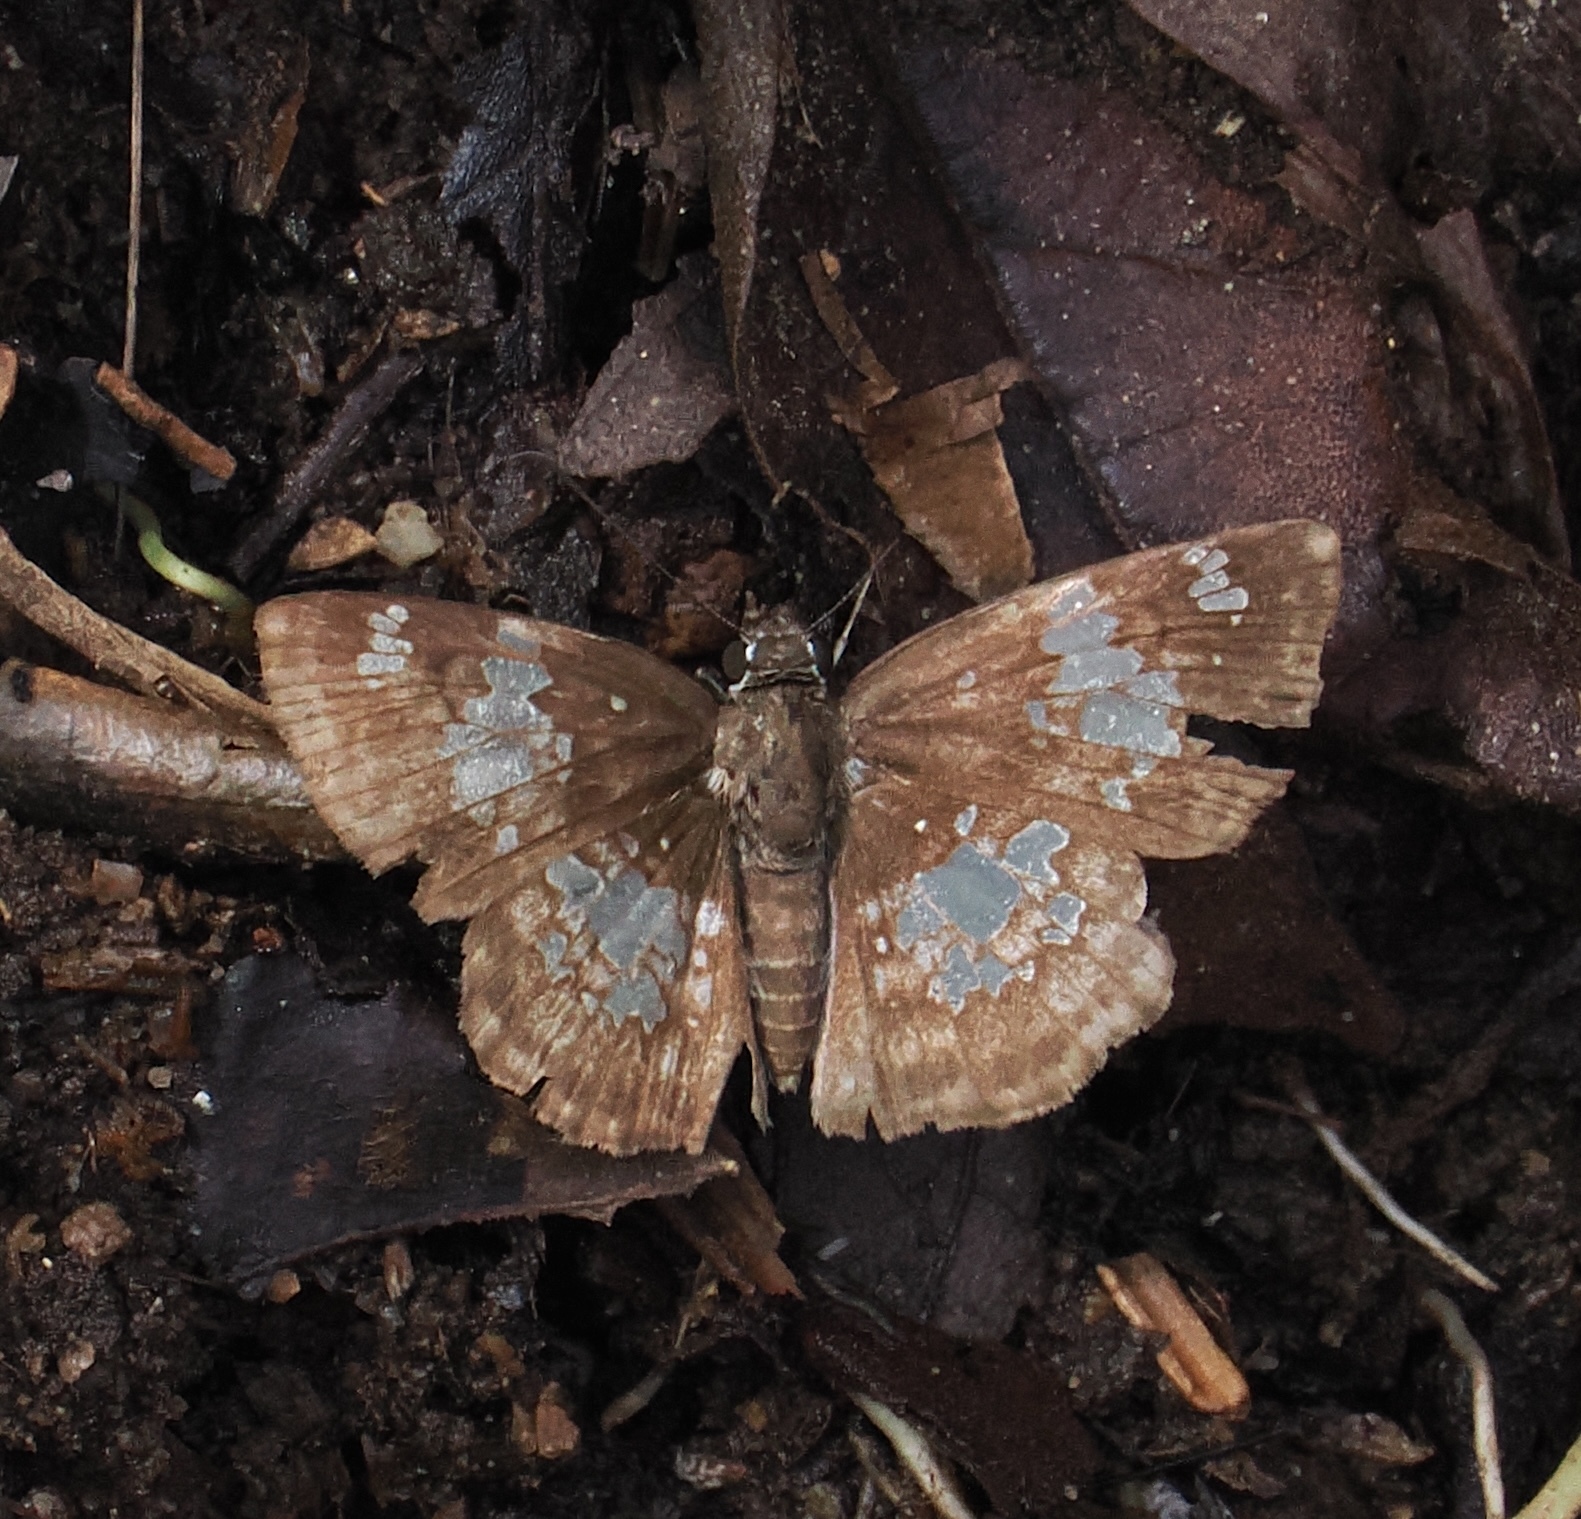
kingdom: Animalia
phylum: Arthropoda
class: Insecta
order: Lepidoptera
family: Hesperiidae
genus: Xenophanes
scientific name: Xenophanes tryxus
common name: Glassy-winged skipper
